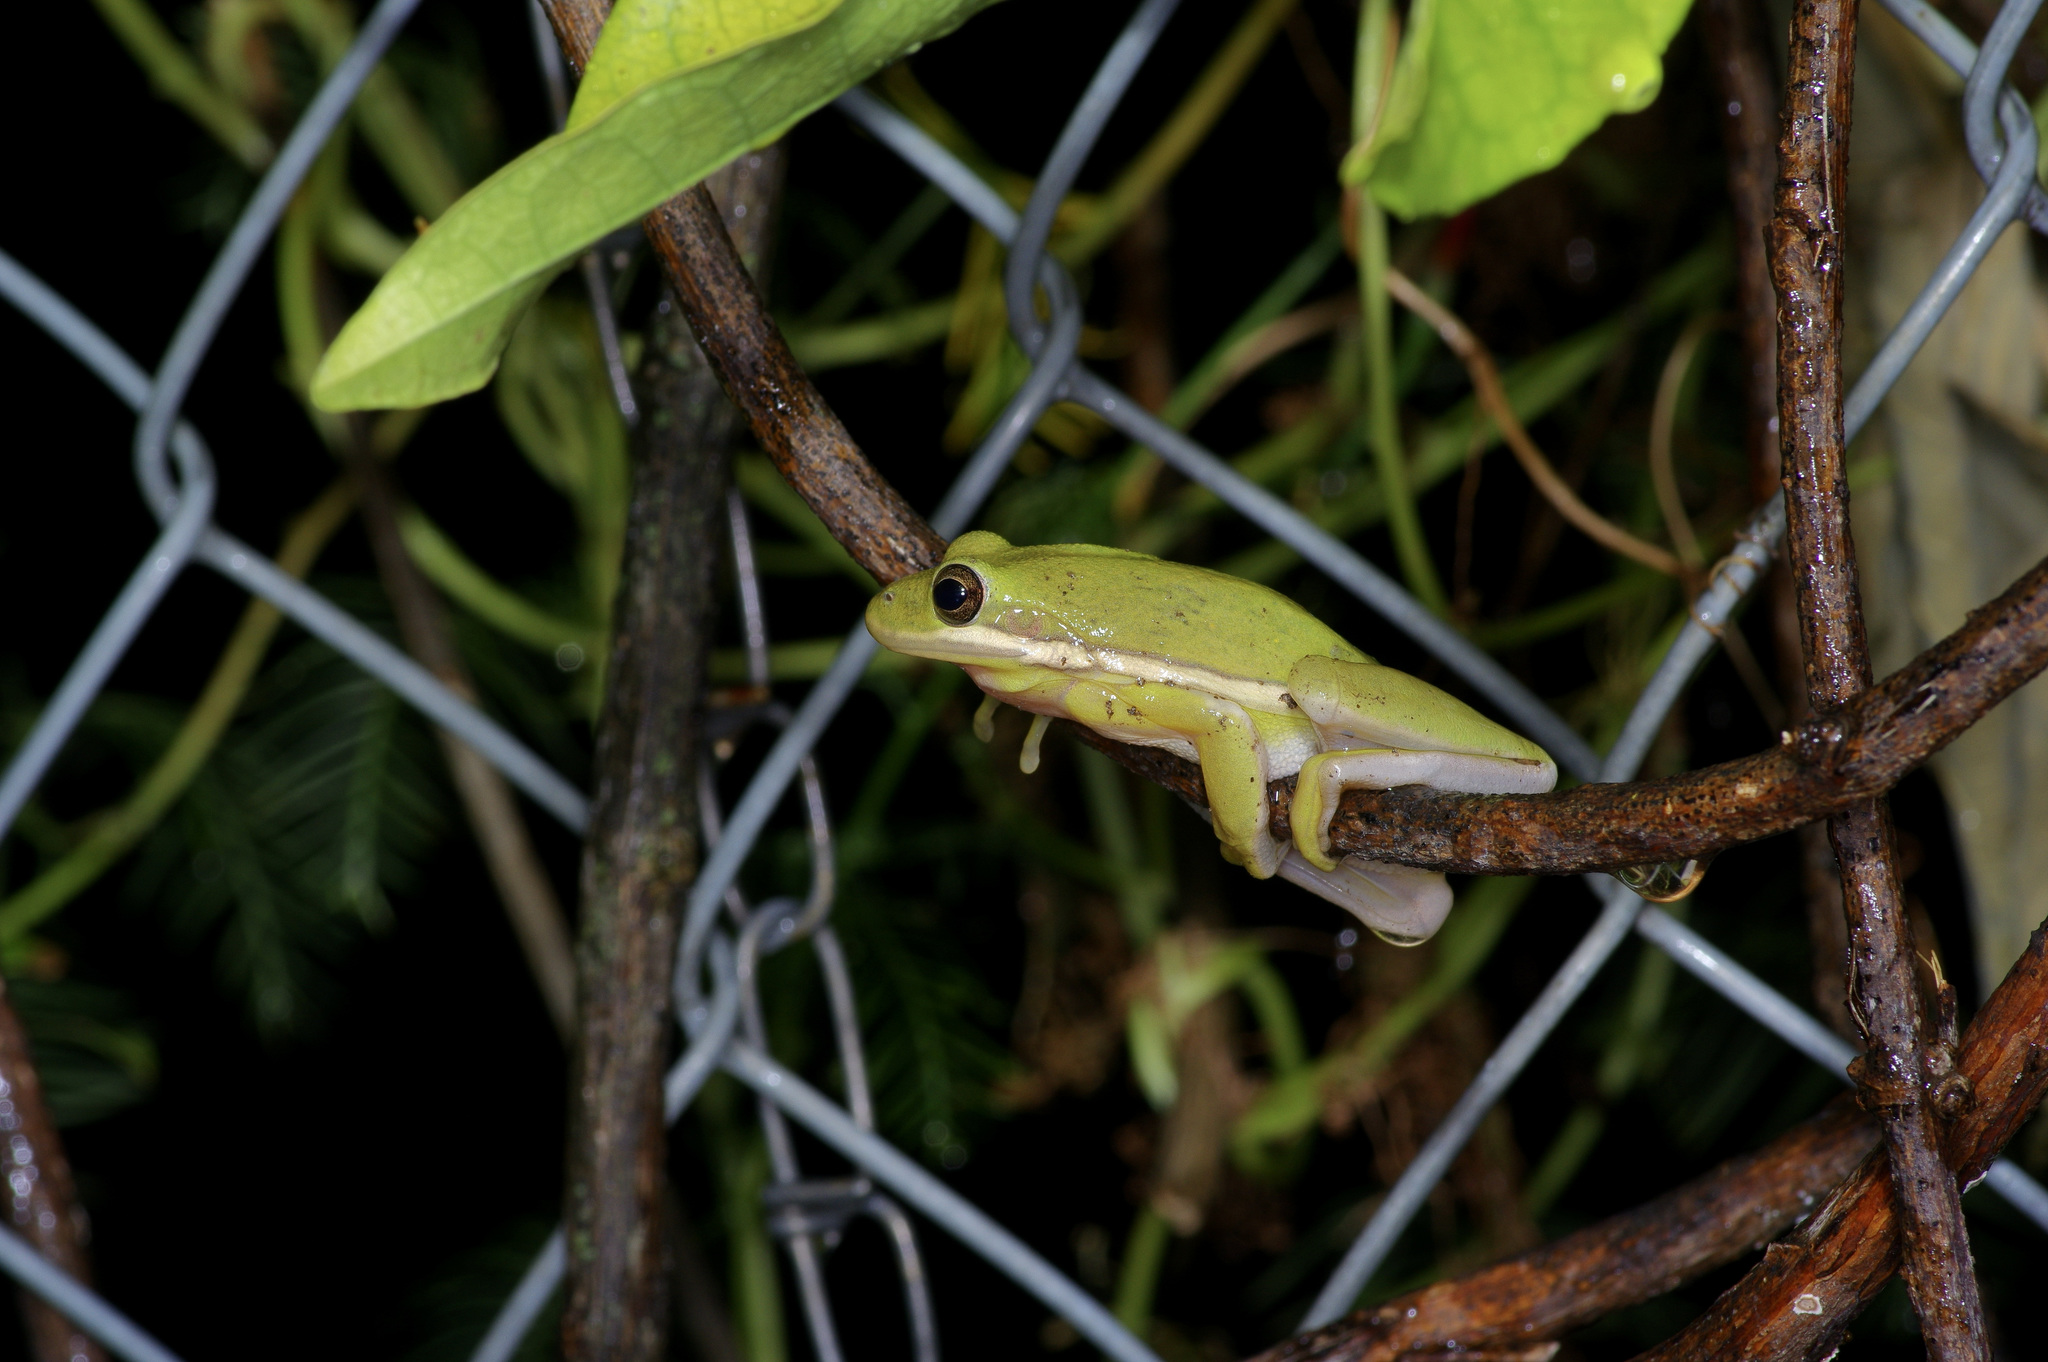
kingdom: Animalia
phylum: Chordata
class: Amphibia
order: Anura
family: Hylidae
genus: Dryophytes
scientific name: Dryophytes cinereus
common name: Green treefrog
